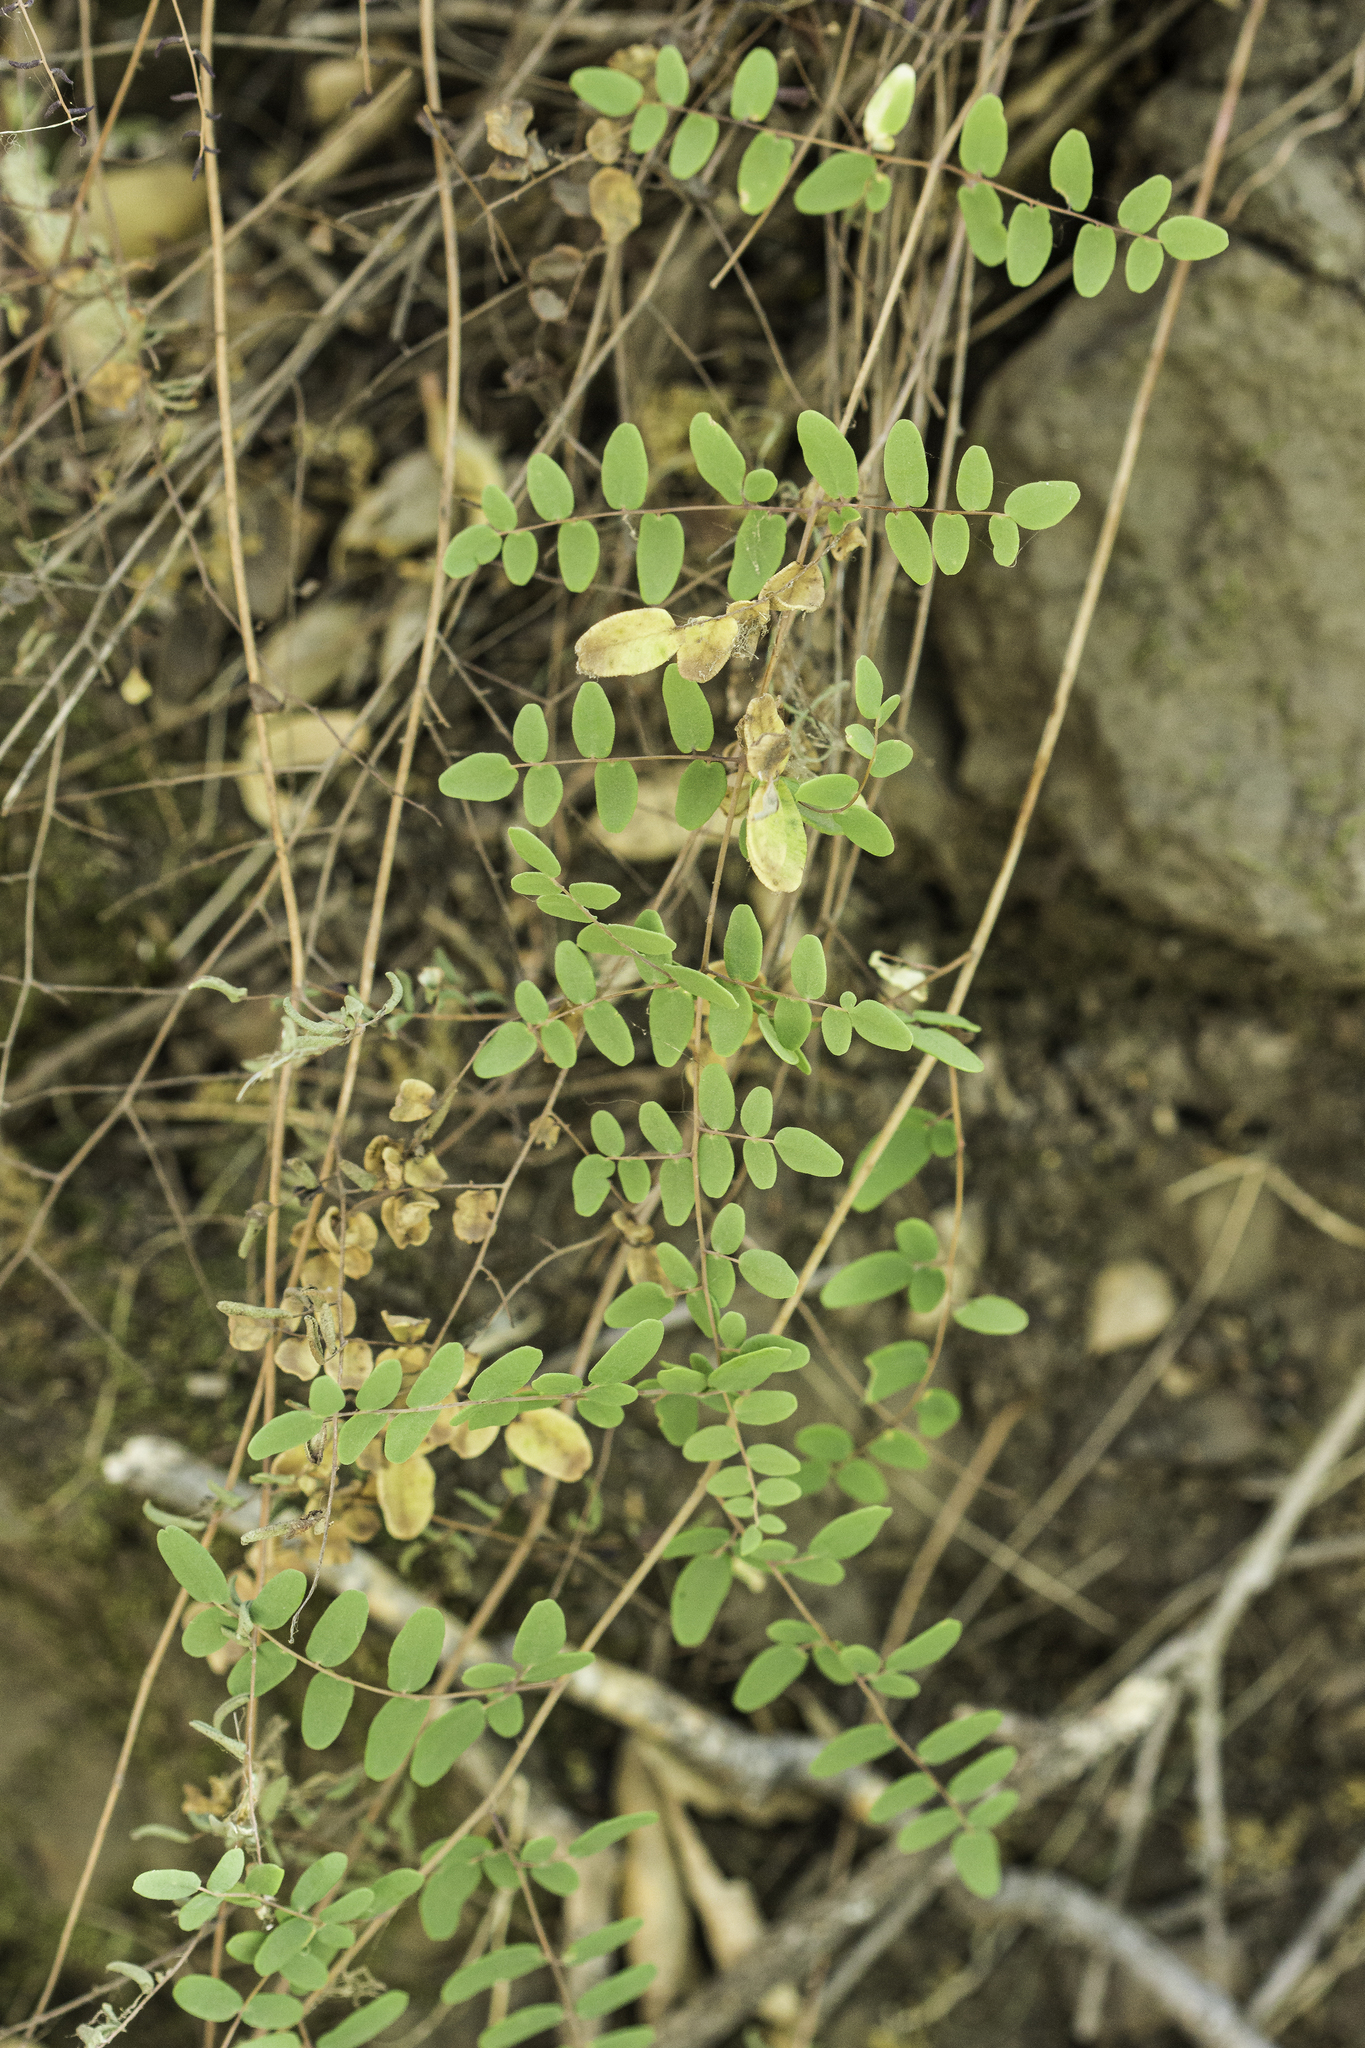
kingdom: Plantae
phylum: Tracheophyta
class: Polypodiopsida
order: Polypodiales
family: Pteridaceae
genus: Pellaea
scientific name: Pellaea andromedifolia
